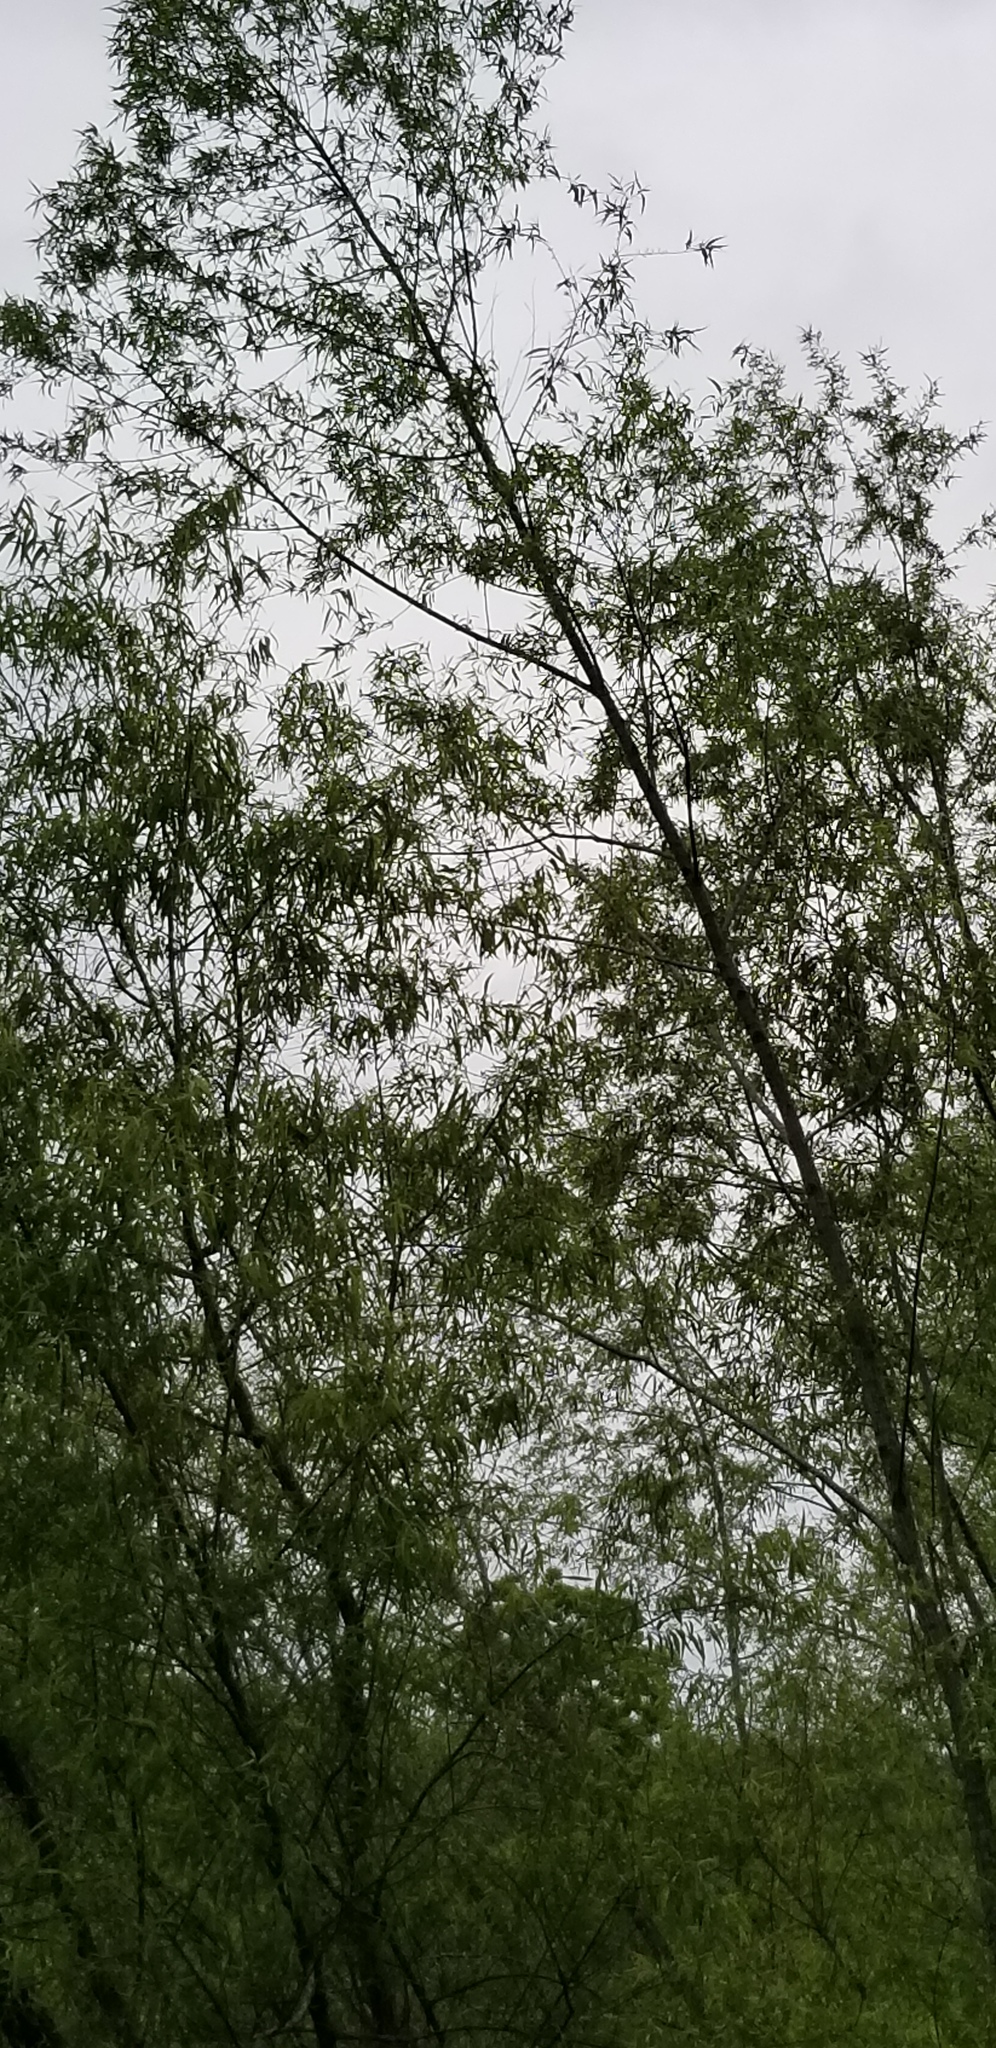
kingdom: Plantae
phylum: Tracheophyta
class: Magnoliopsida
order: Malpighiales
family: Salicaceae
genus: Salix
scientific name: Salix nigra
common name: Black willow
